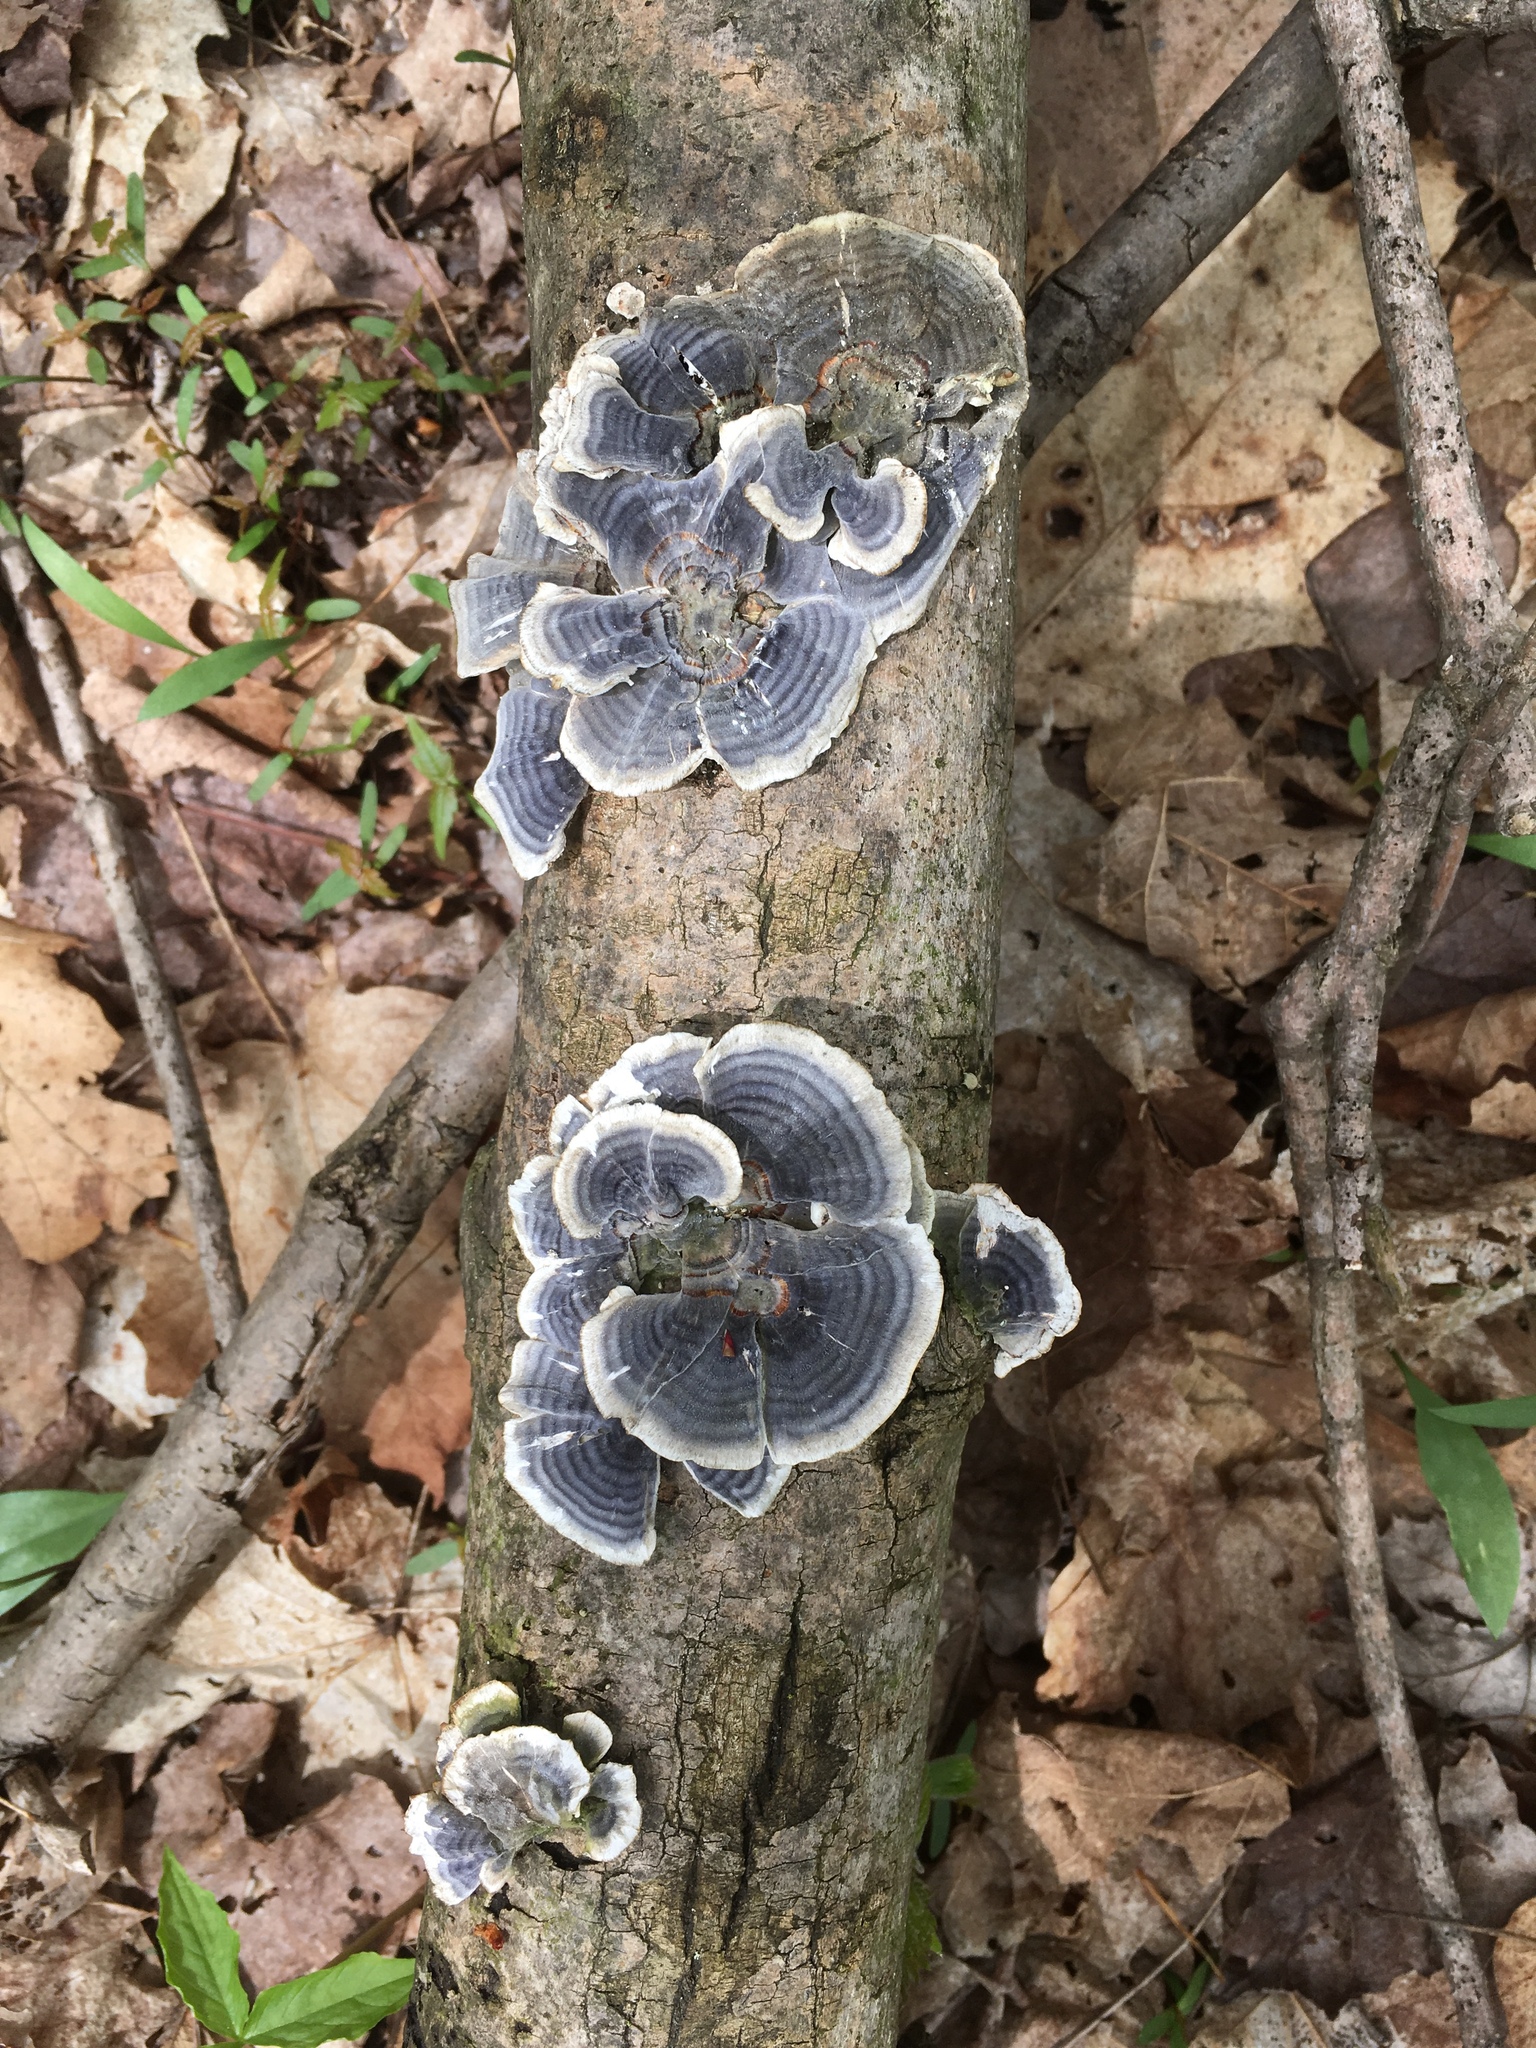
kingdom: Fungi
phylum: Basidiomycota
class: Agaricomycetes
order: Polyporales
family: Polyporaceae
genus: Trametes
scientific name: Trametes versicolor
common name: Turkeytail
